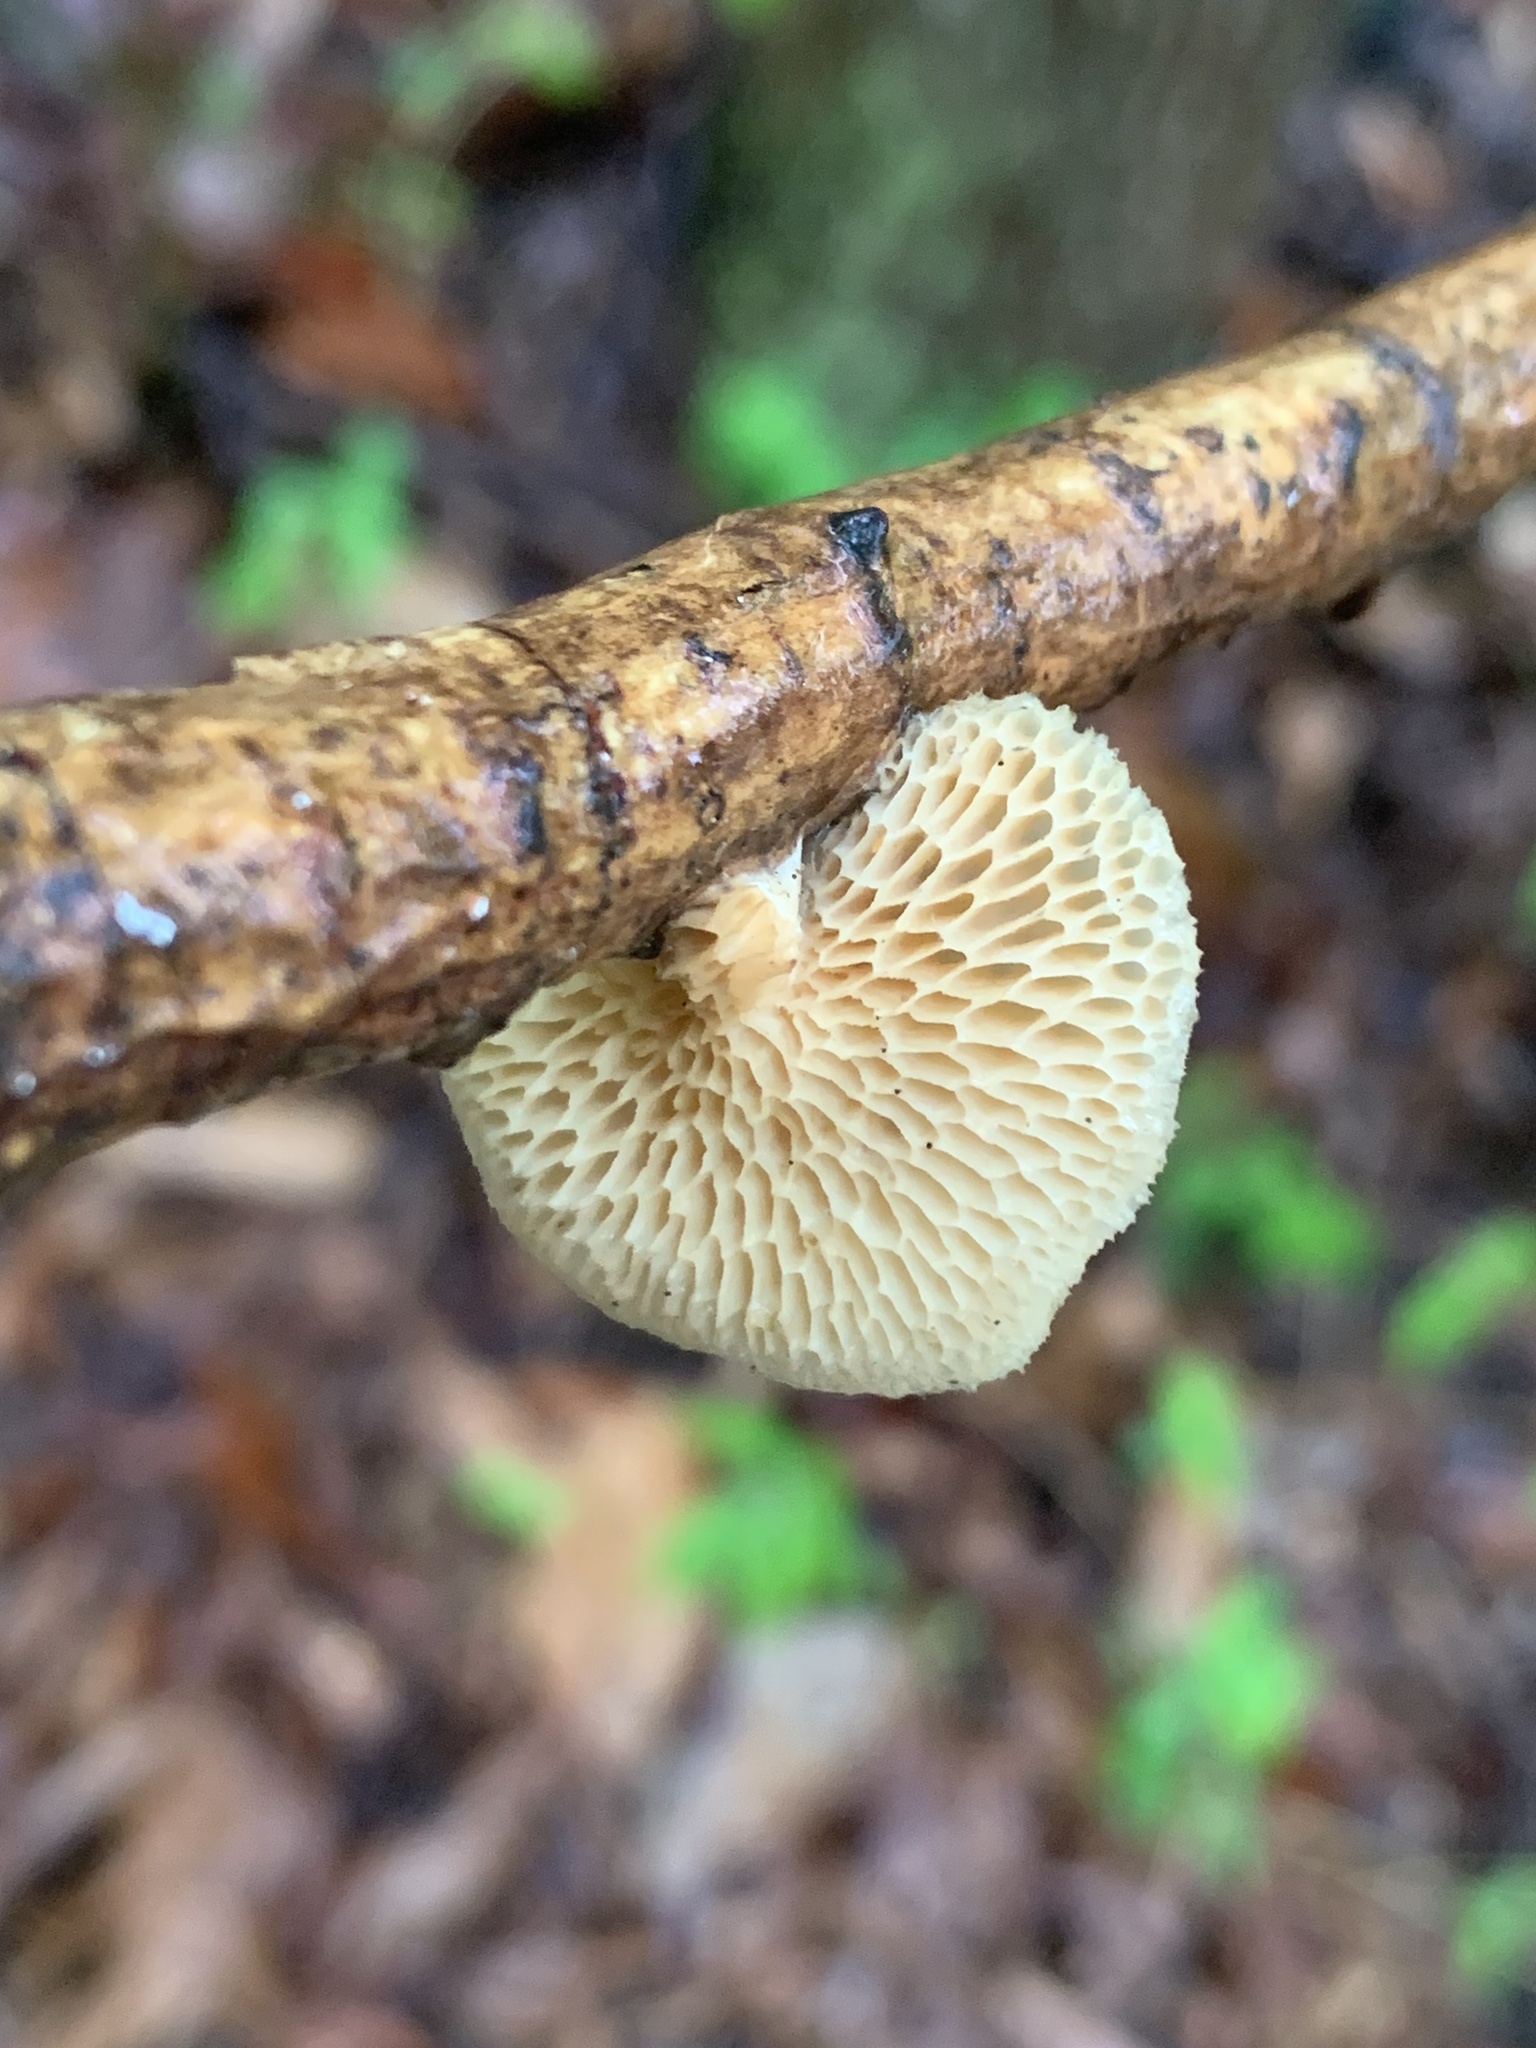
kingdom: Fungi
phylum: Basidiomycota
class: Agaricomycetes
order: Polyporales
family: Polyporaceae
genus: Neofavolus
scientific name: Neofavolus
